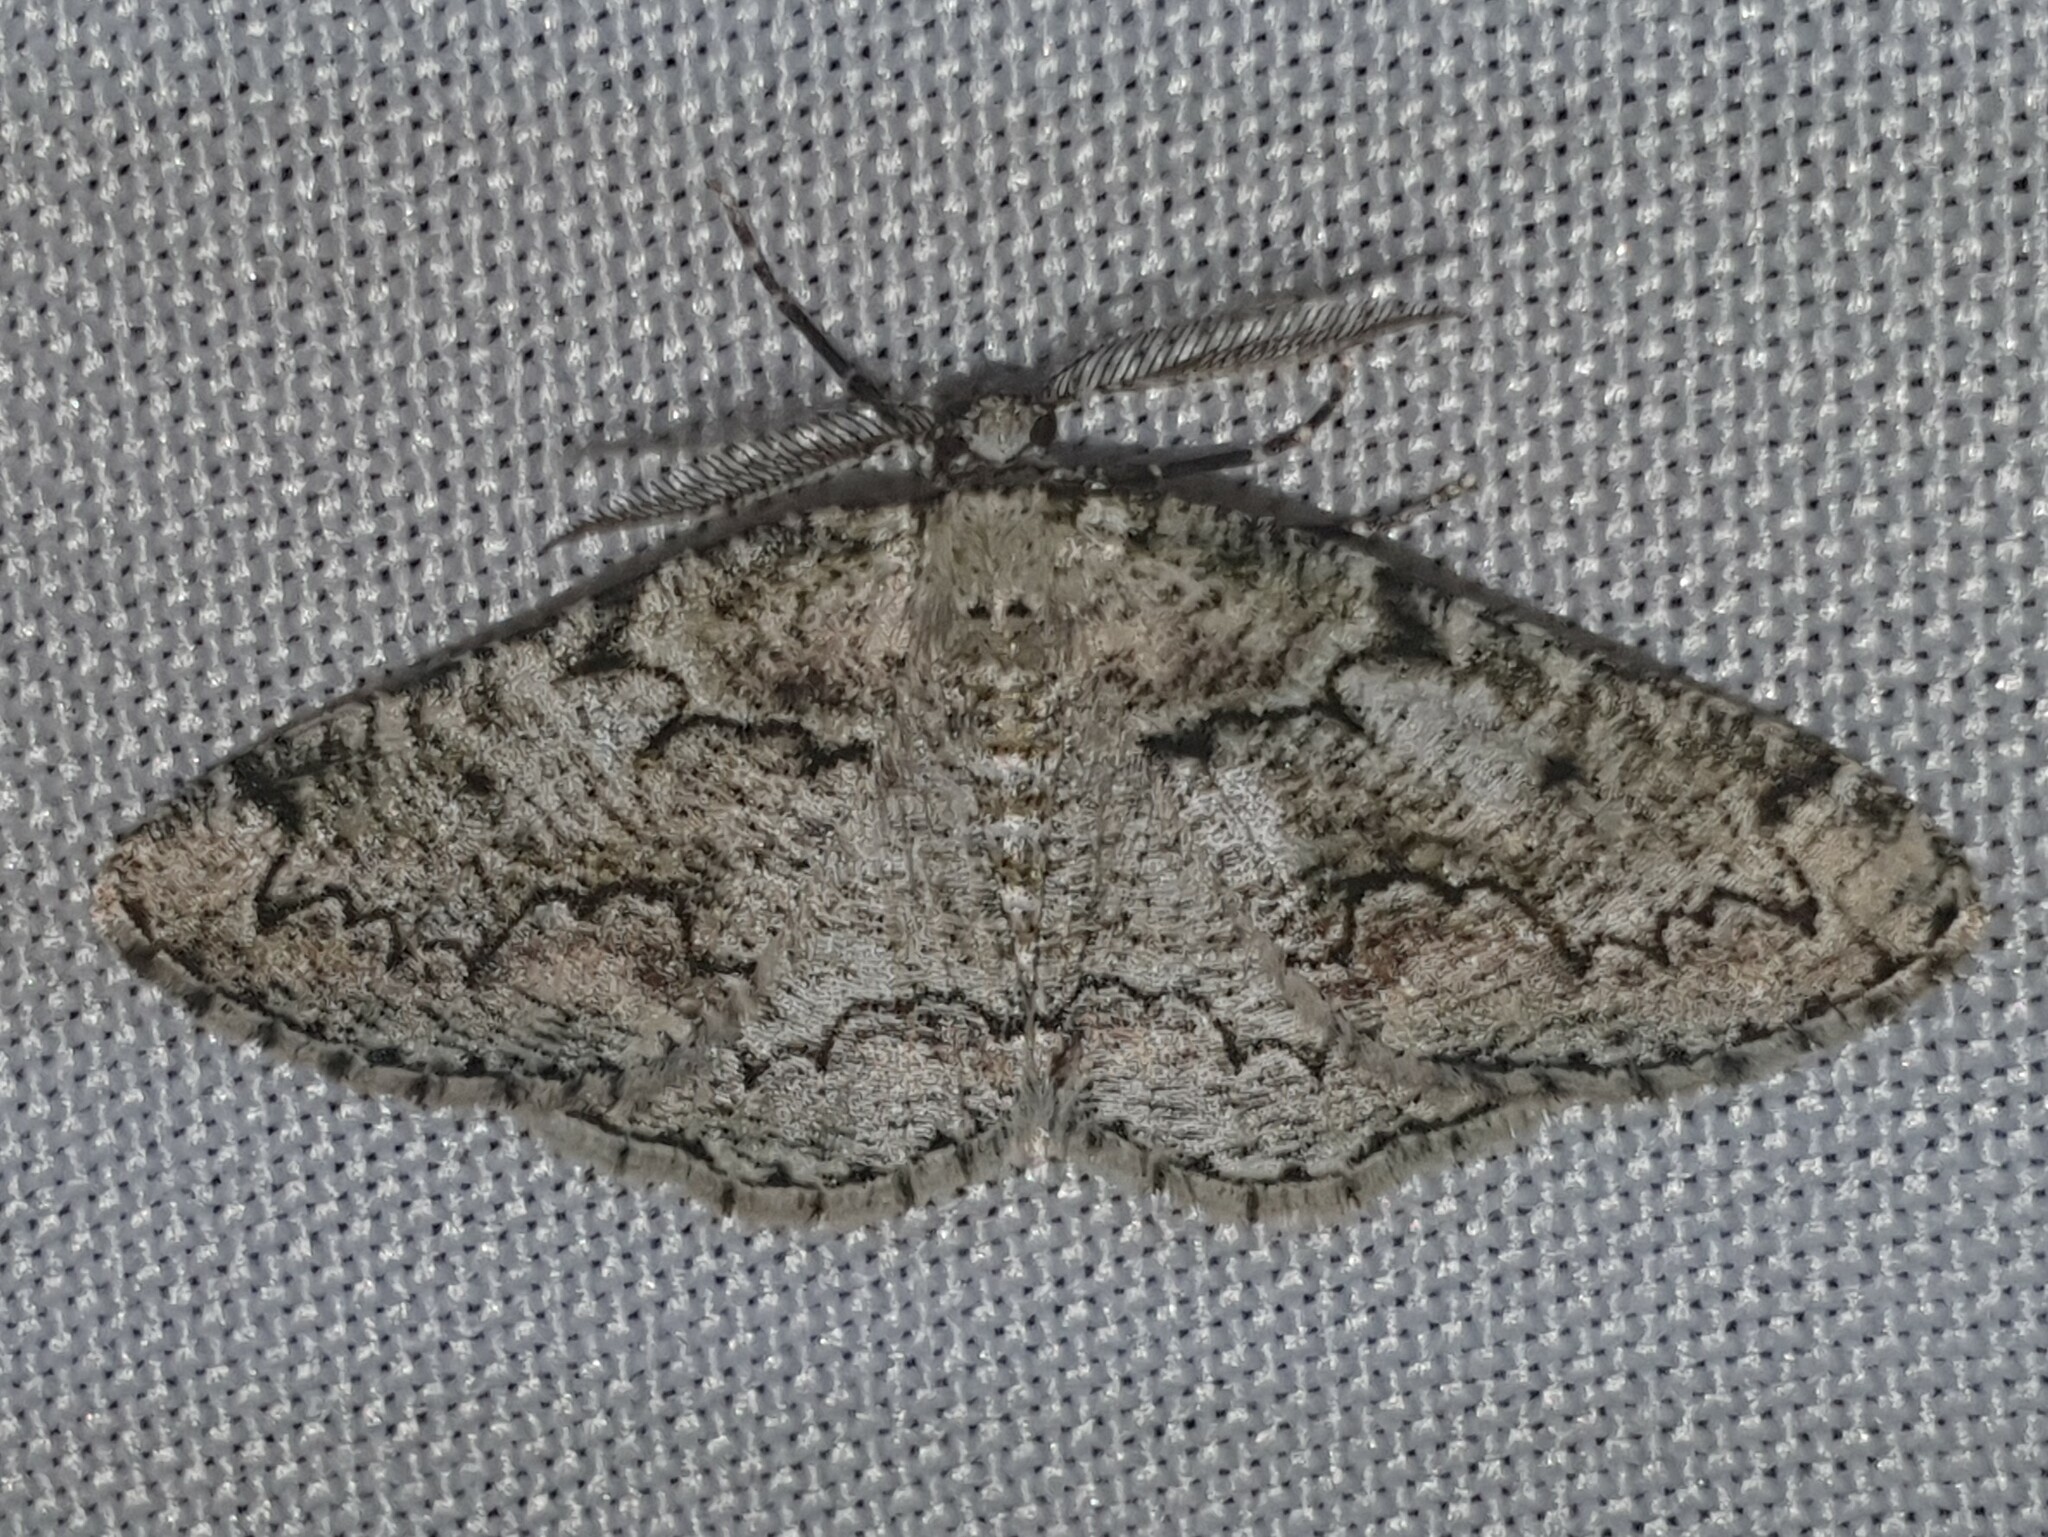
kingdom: Animalia
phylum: Arthropoda
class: Insecta
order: Lepidoptera
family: Geometridae
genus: Cleorodes
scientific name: Cleorodes lichenaria
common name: Brussels lace
